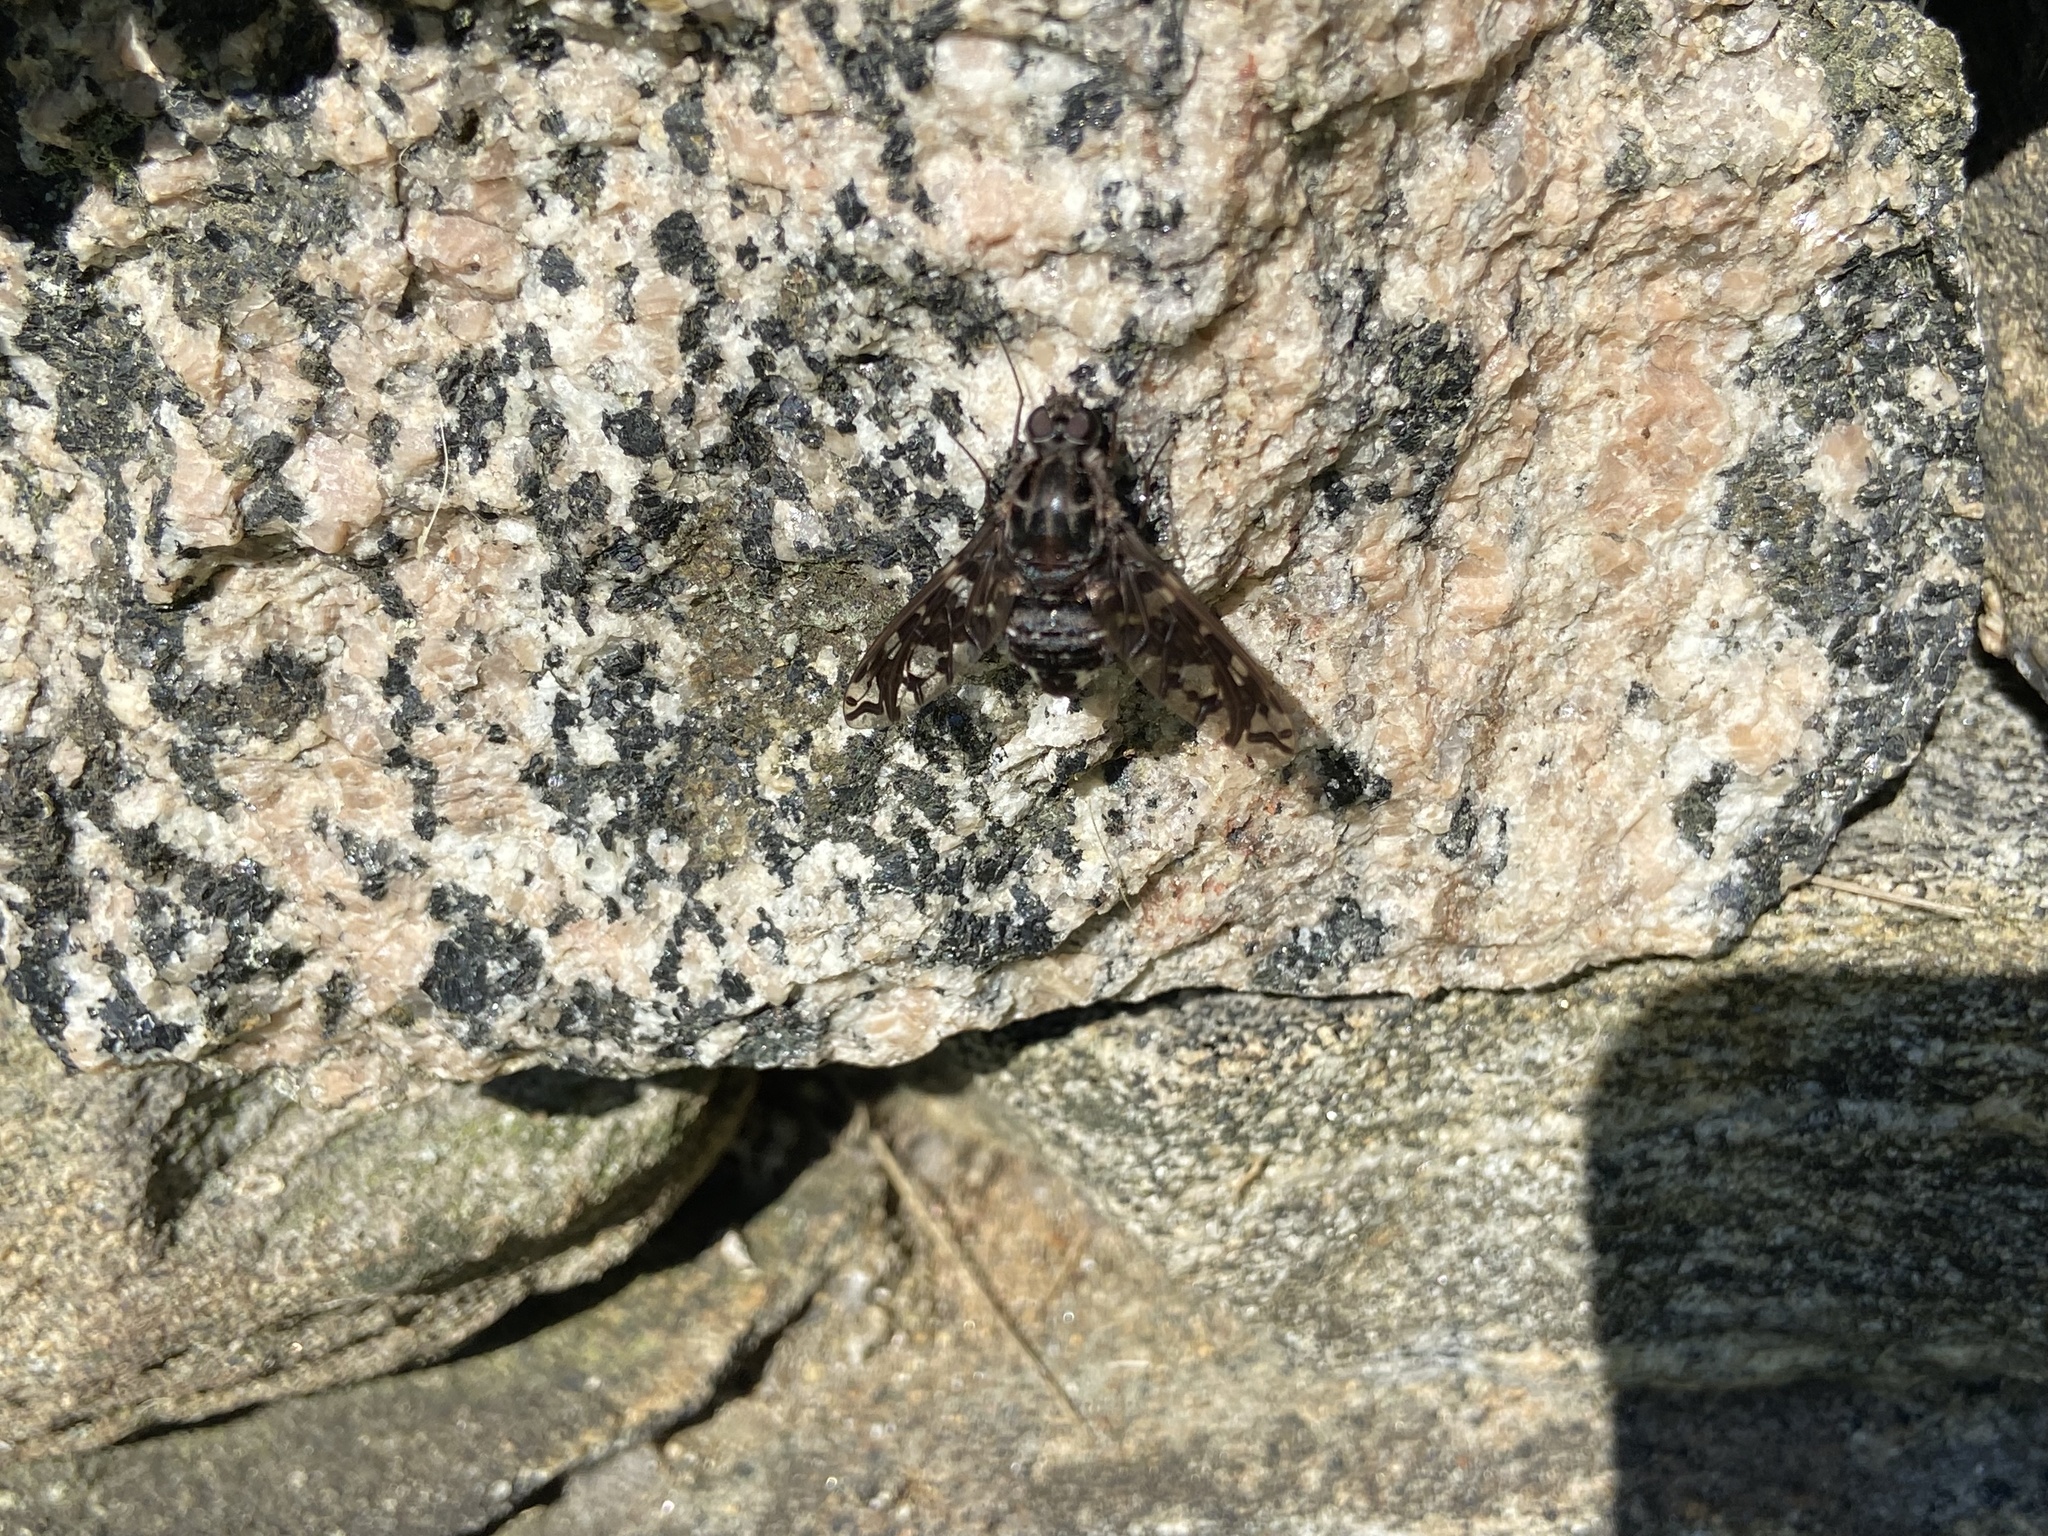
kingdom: Animalia
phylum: Arthropoda
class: Insecta
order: Diptera
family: Bombyliidae
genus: Xenox
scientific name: Xenox tigrinus
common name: Tiger bee fly
